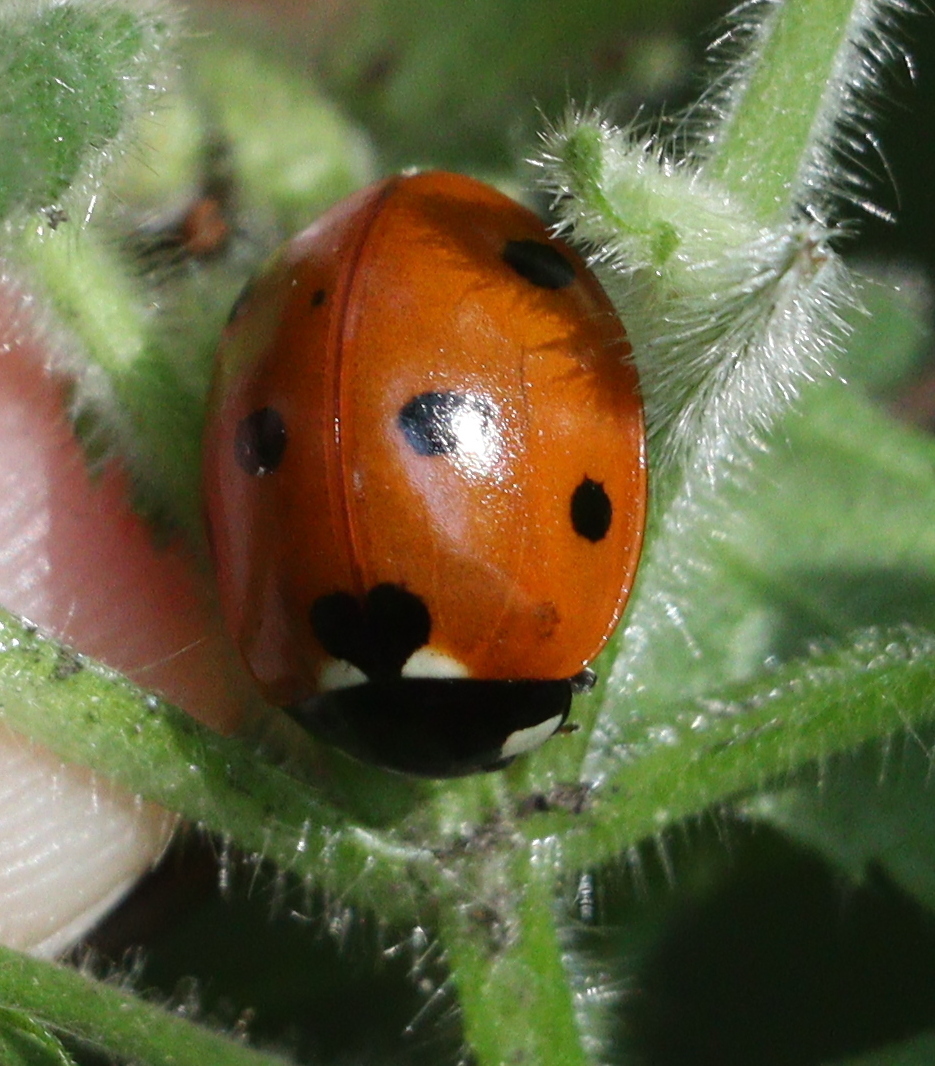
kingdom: Animalia
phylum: Arthropoda
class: Insecta
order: Coleoptera
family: Coccinellidae
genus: Coccinella
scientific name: Coccinella septempunctata
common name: Sevenspotted lady beetle
